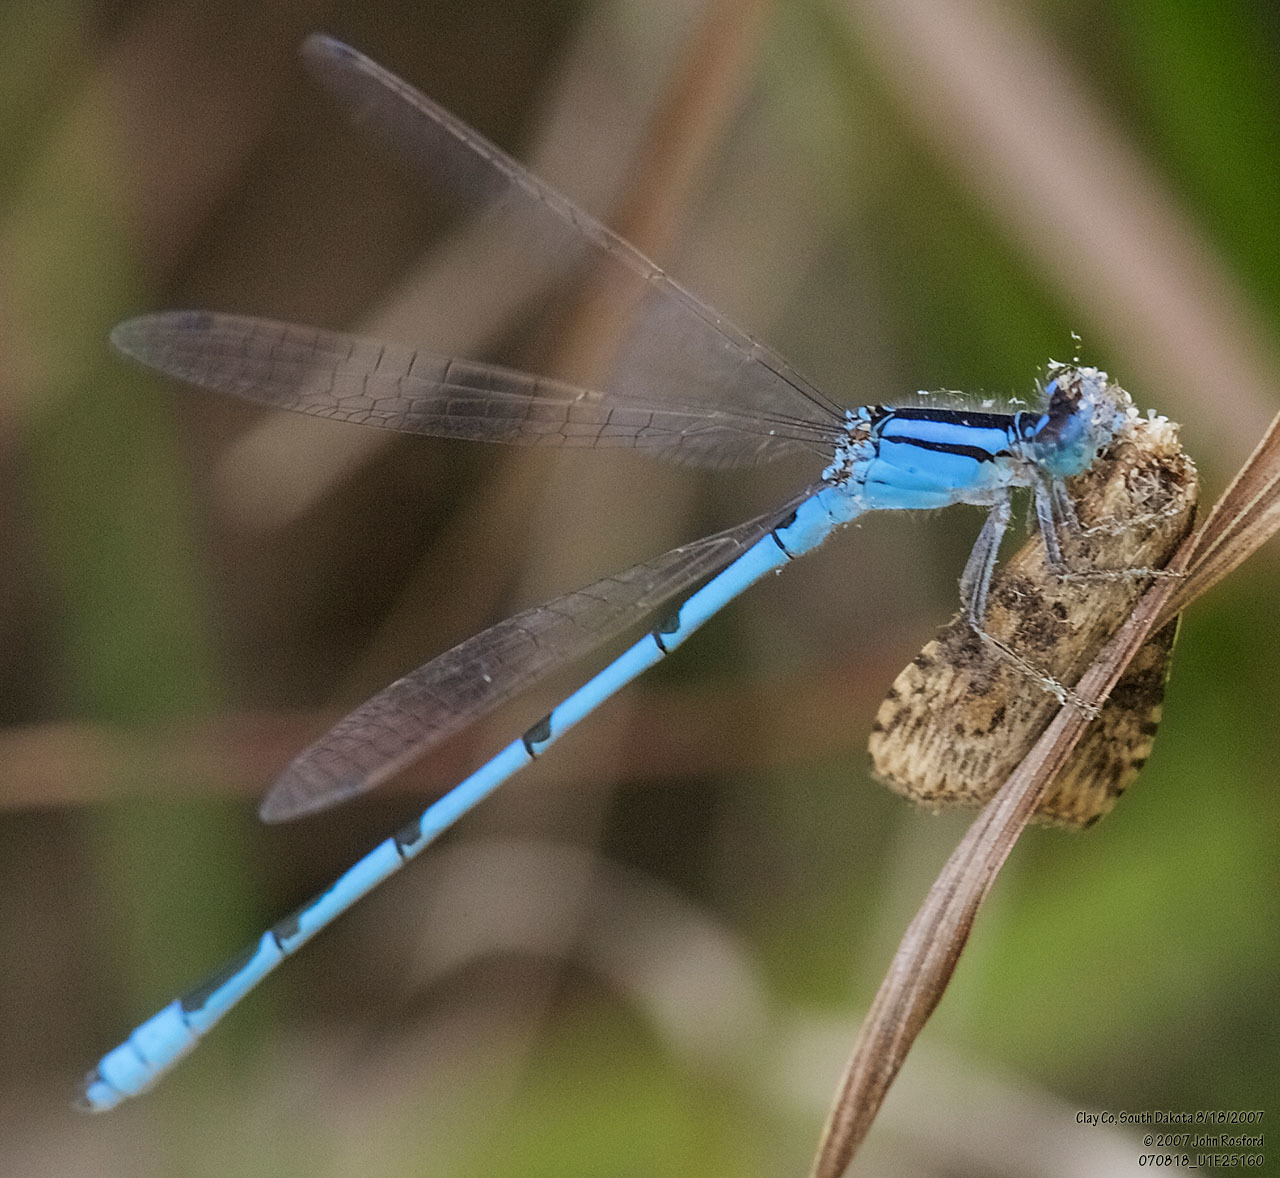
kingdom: Animalia
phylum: Arthropoda
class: Insecta
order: Odonata
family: Coenagrionidae
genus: Enallagma
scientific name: Enallagma civile
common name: Damselfly
